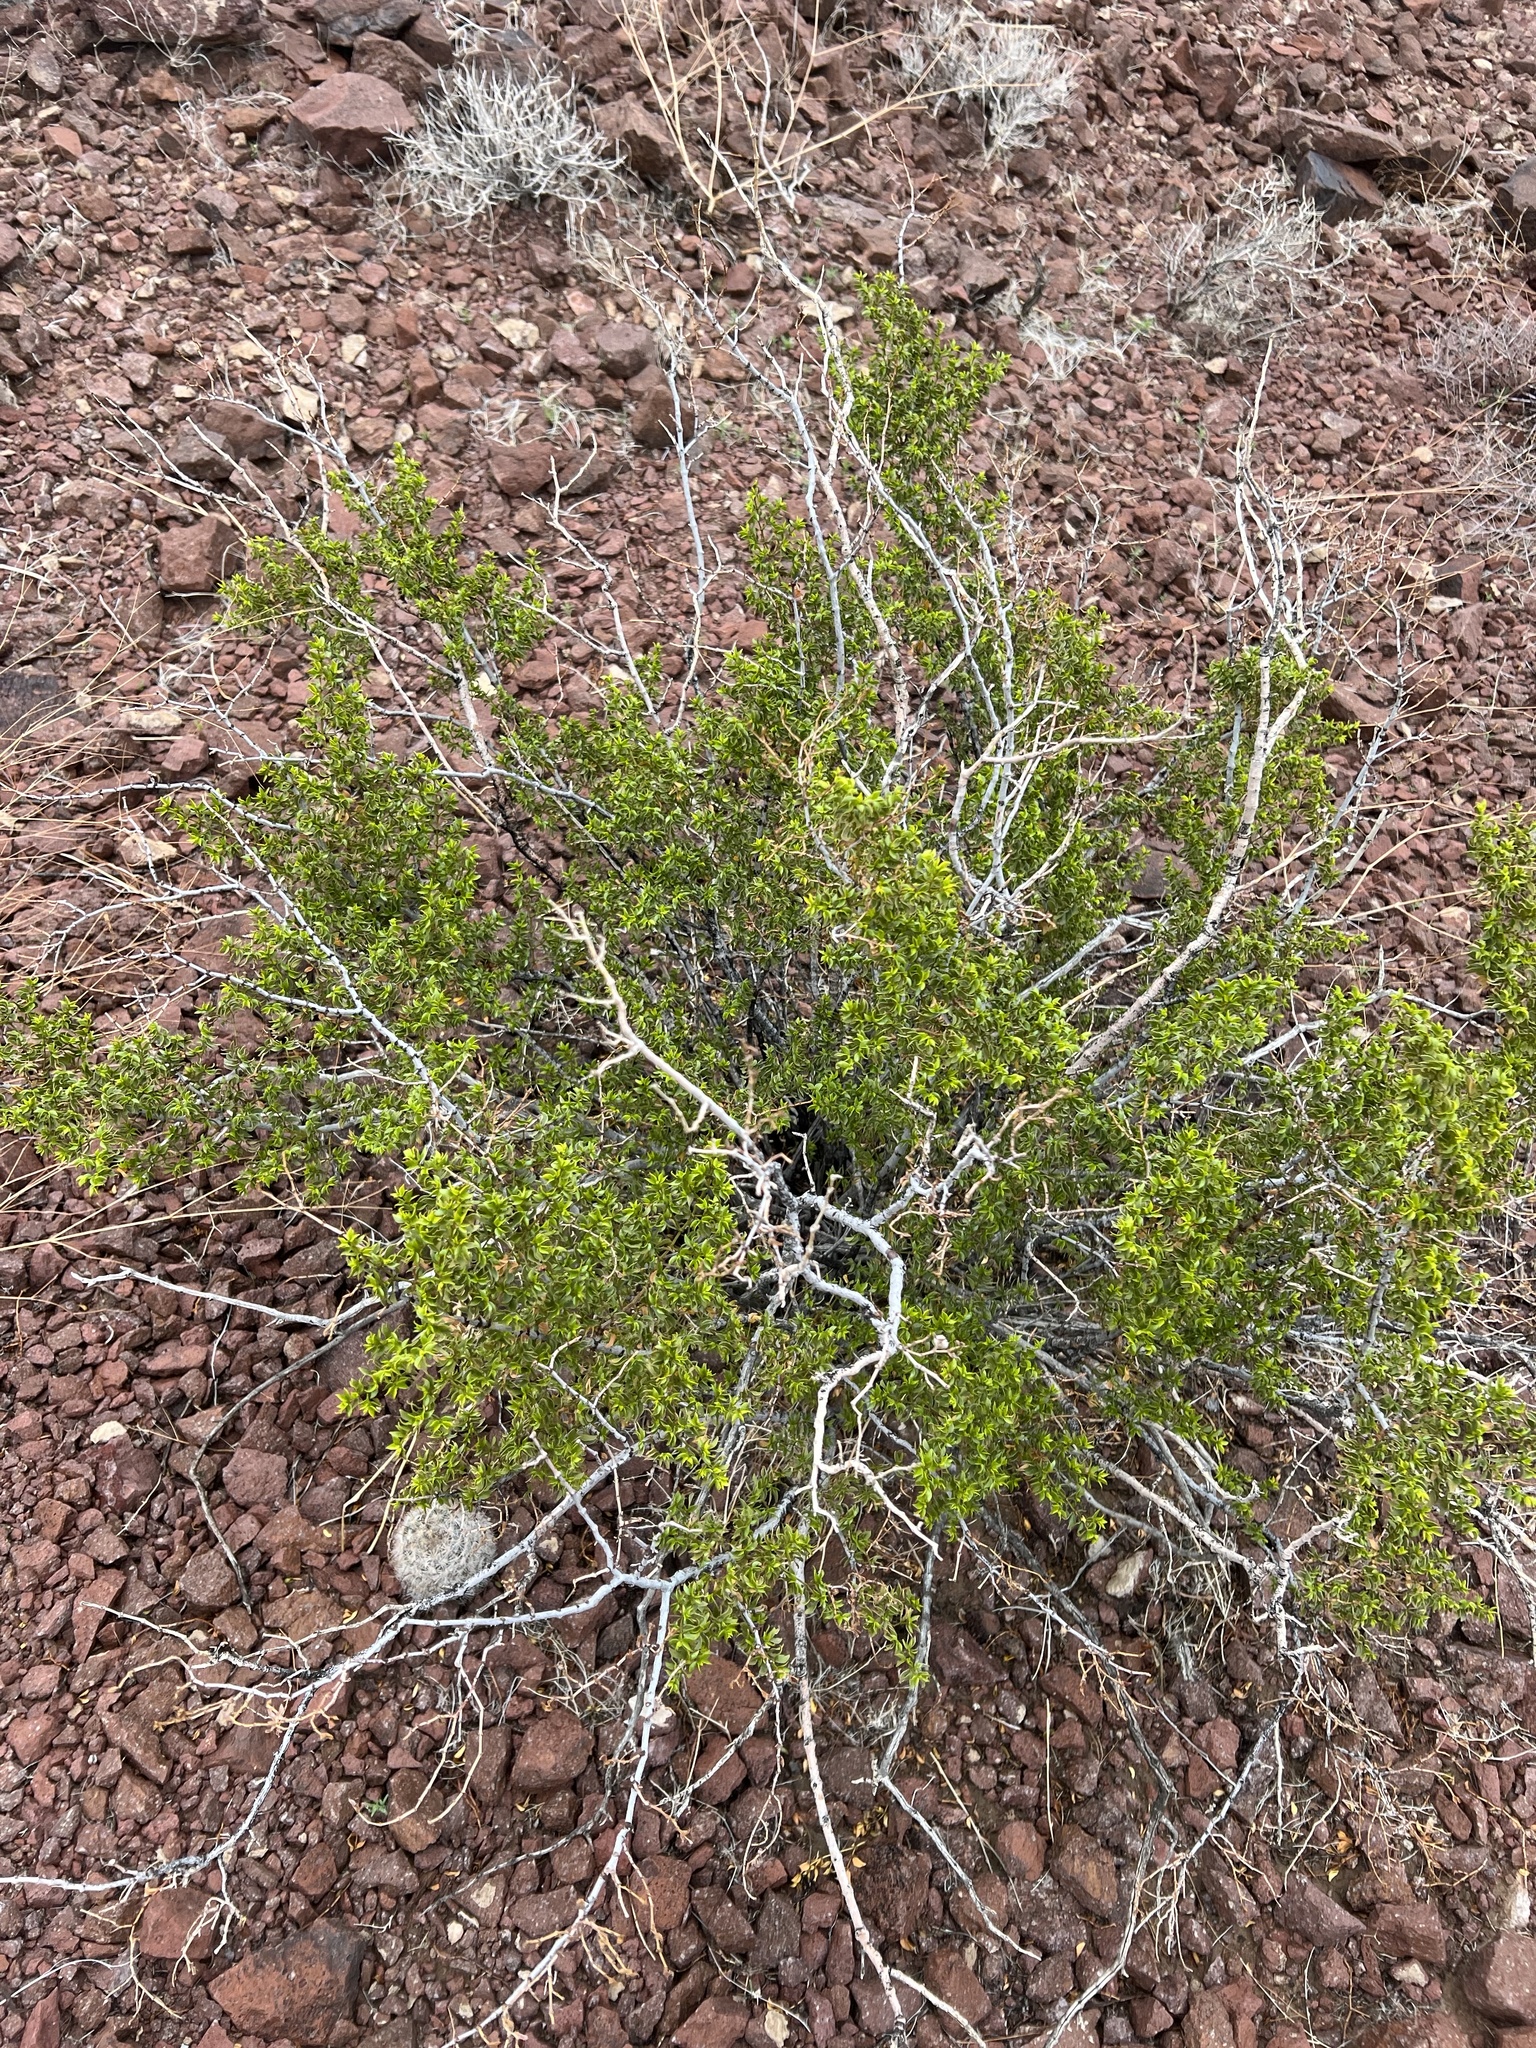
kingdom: Plantae
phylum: Tracheophyta
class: Magnoliopsida
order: Zygophyllales
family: Zygophyllaceae
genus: Larrea
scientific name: Larrea tridentata
